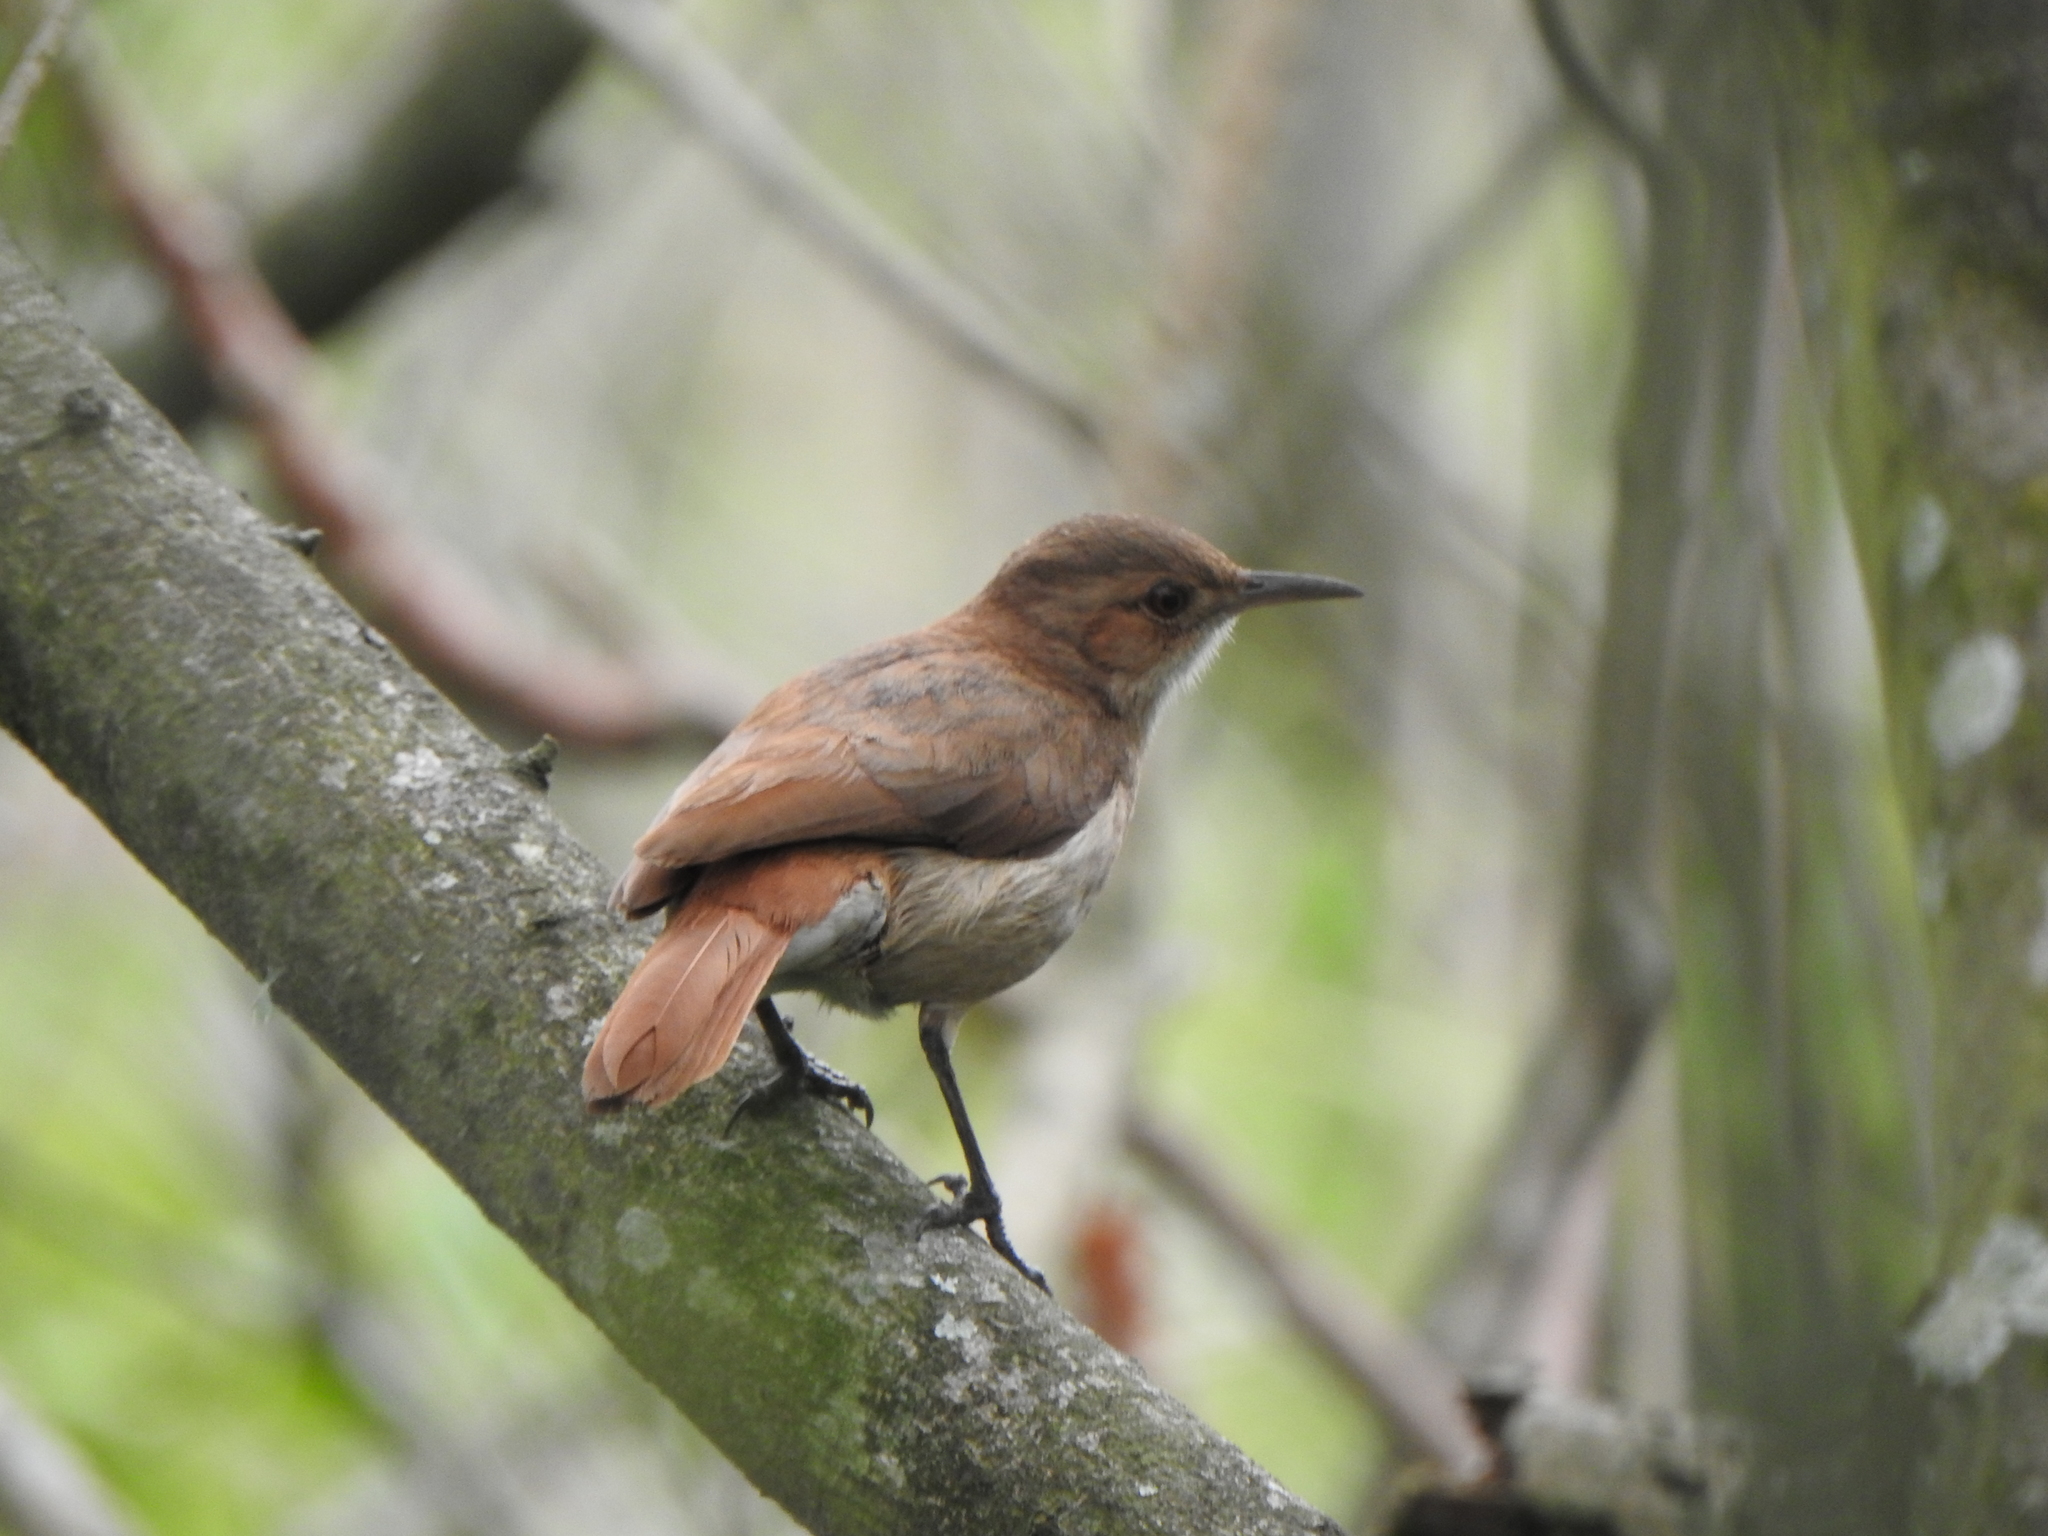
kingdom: Animalia
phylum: Chordata
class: Aves
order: Passeriformes
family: Furnariidae
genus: Furnarius
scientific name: Furnarius rufus
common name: Rufous hornero
